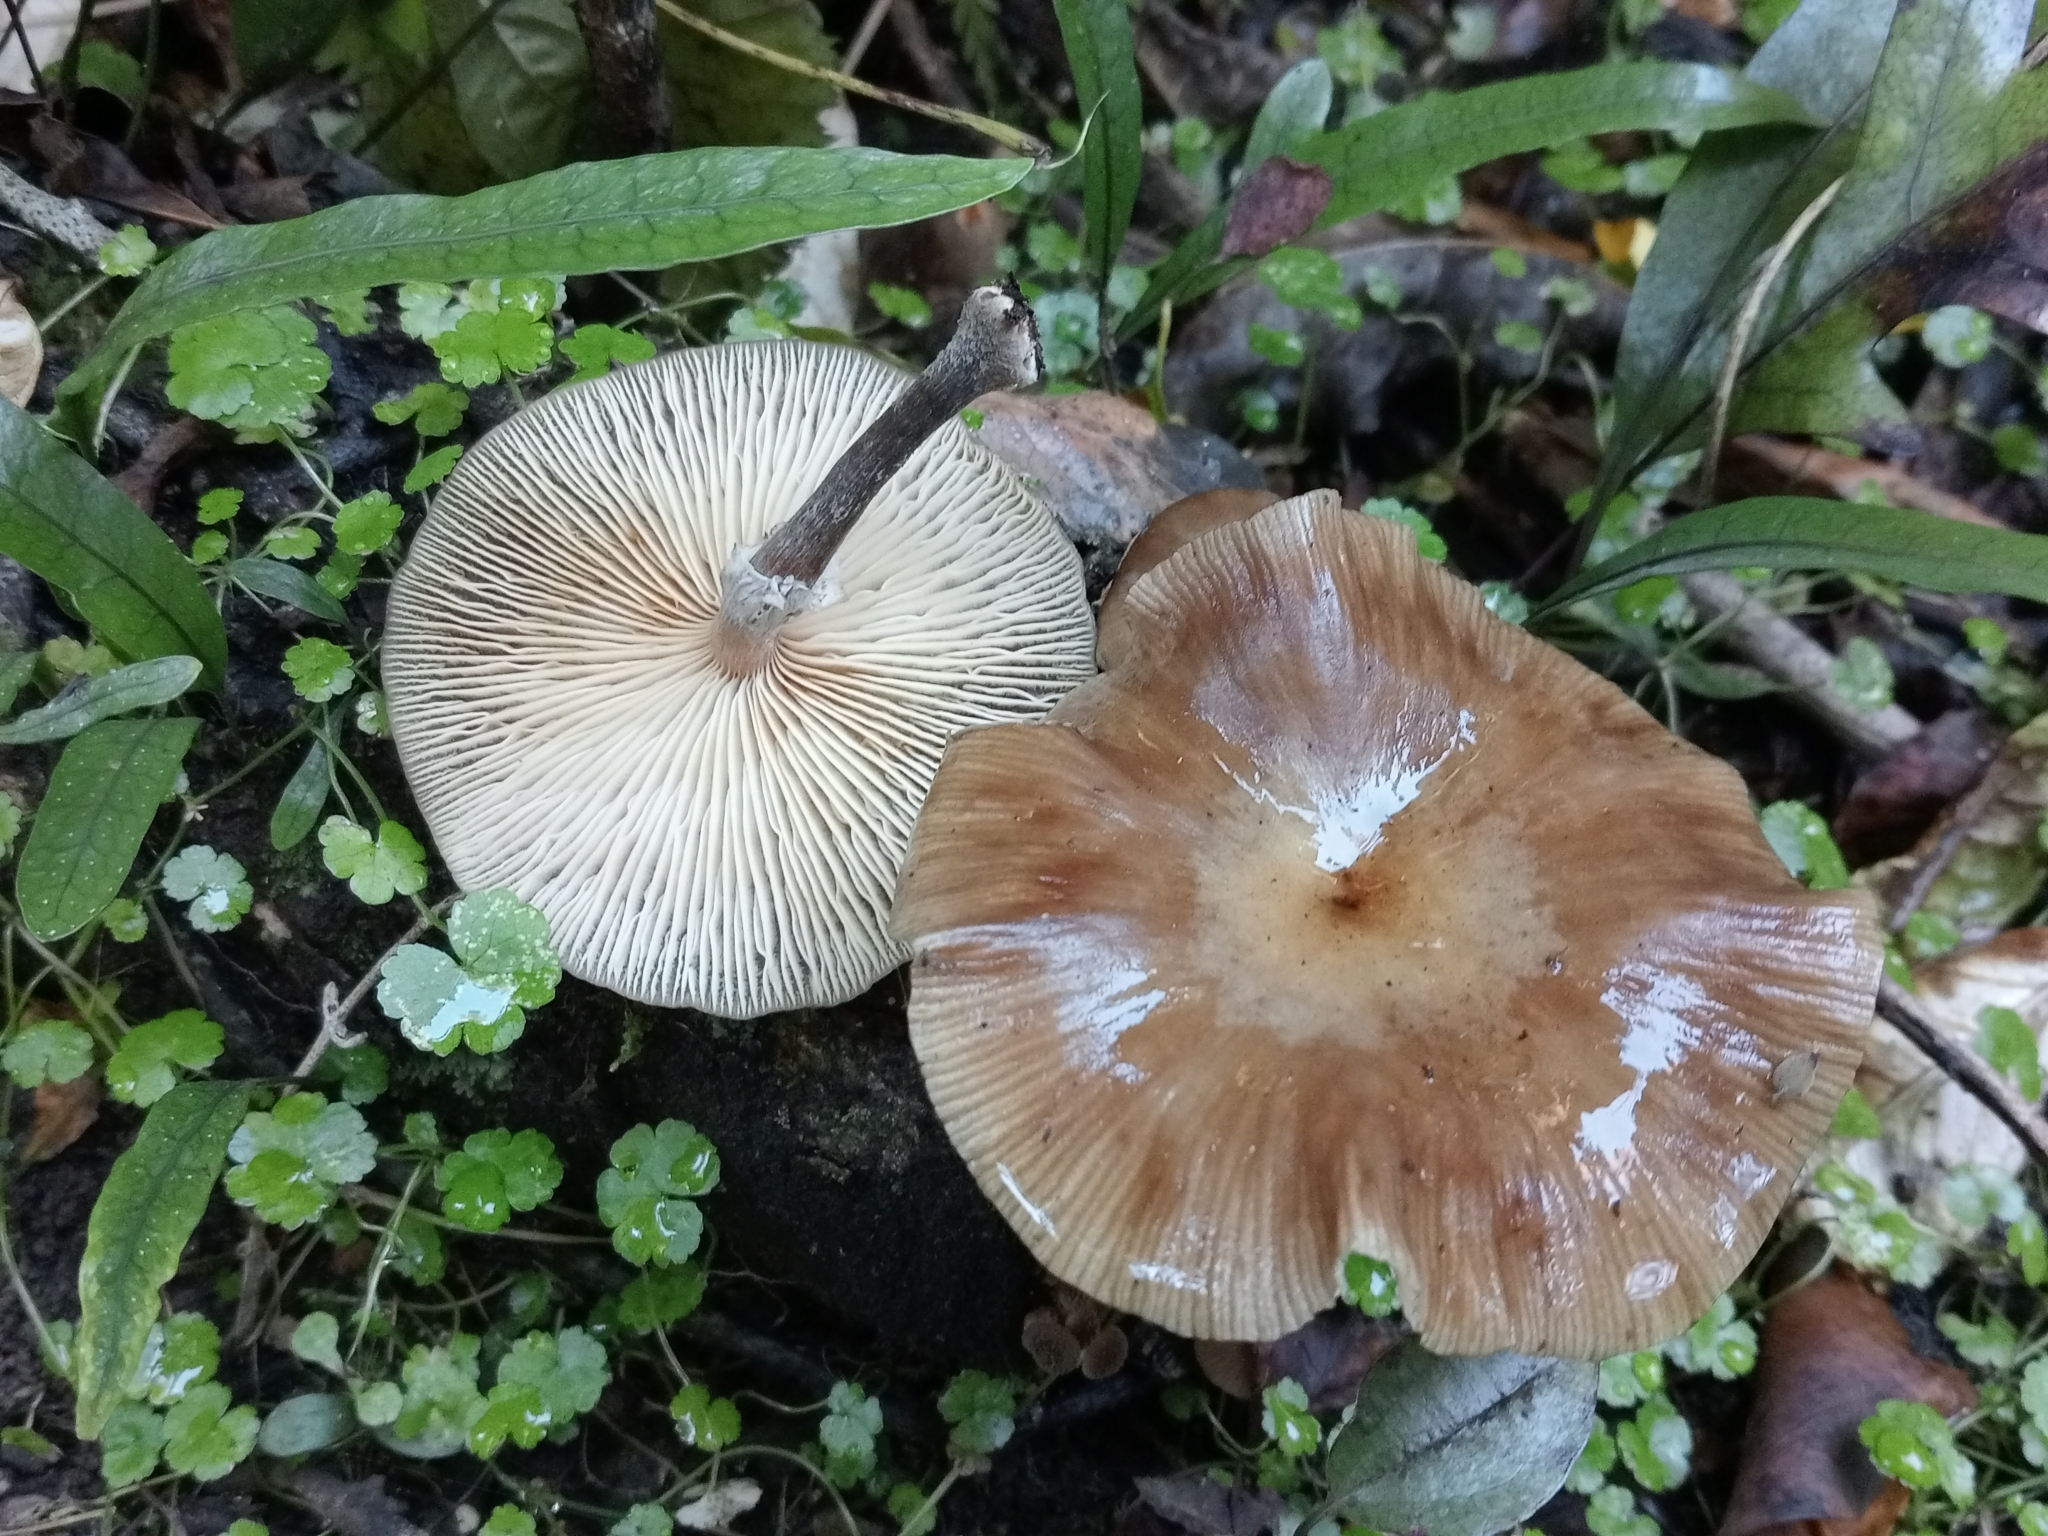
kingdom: Fungi
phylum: Basidiomycota
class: Agaricomycetes
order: Agaricales
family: Physalacriaceae
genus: Armillaria
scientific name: Armillaria novae-zelandiae
